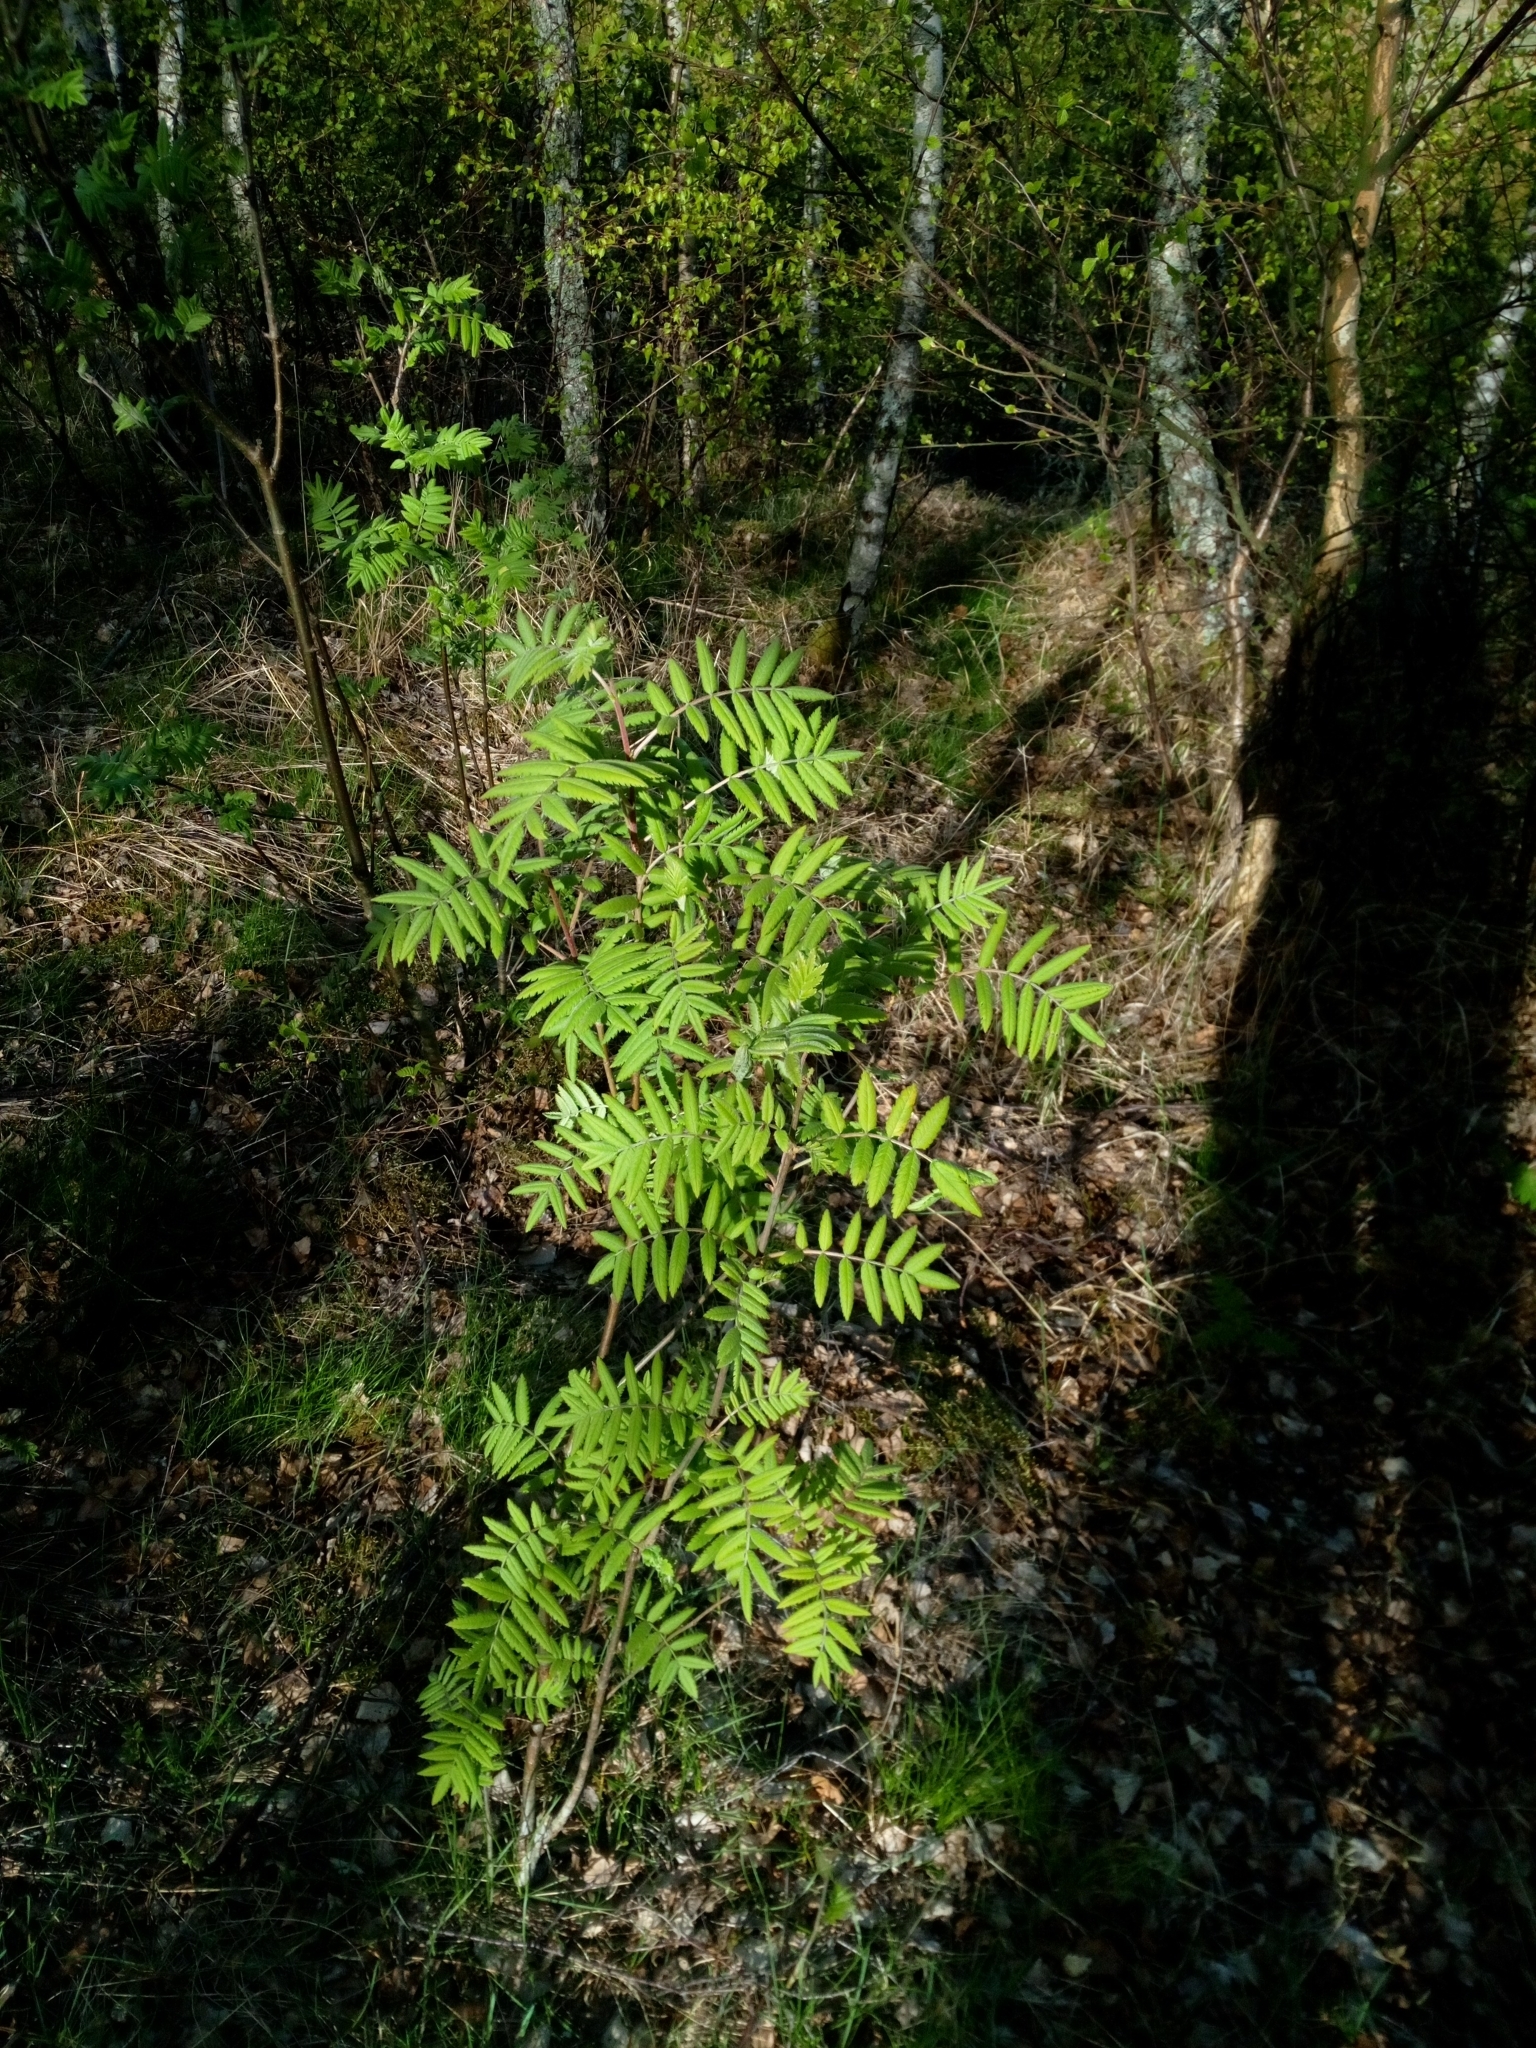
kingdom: Plantae
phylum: Tracheophyta
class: Magnoliopsida
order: Rosales
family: Rosaceae
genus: Sorbus
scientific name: Sorbus aucuparia
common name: Rowan
